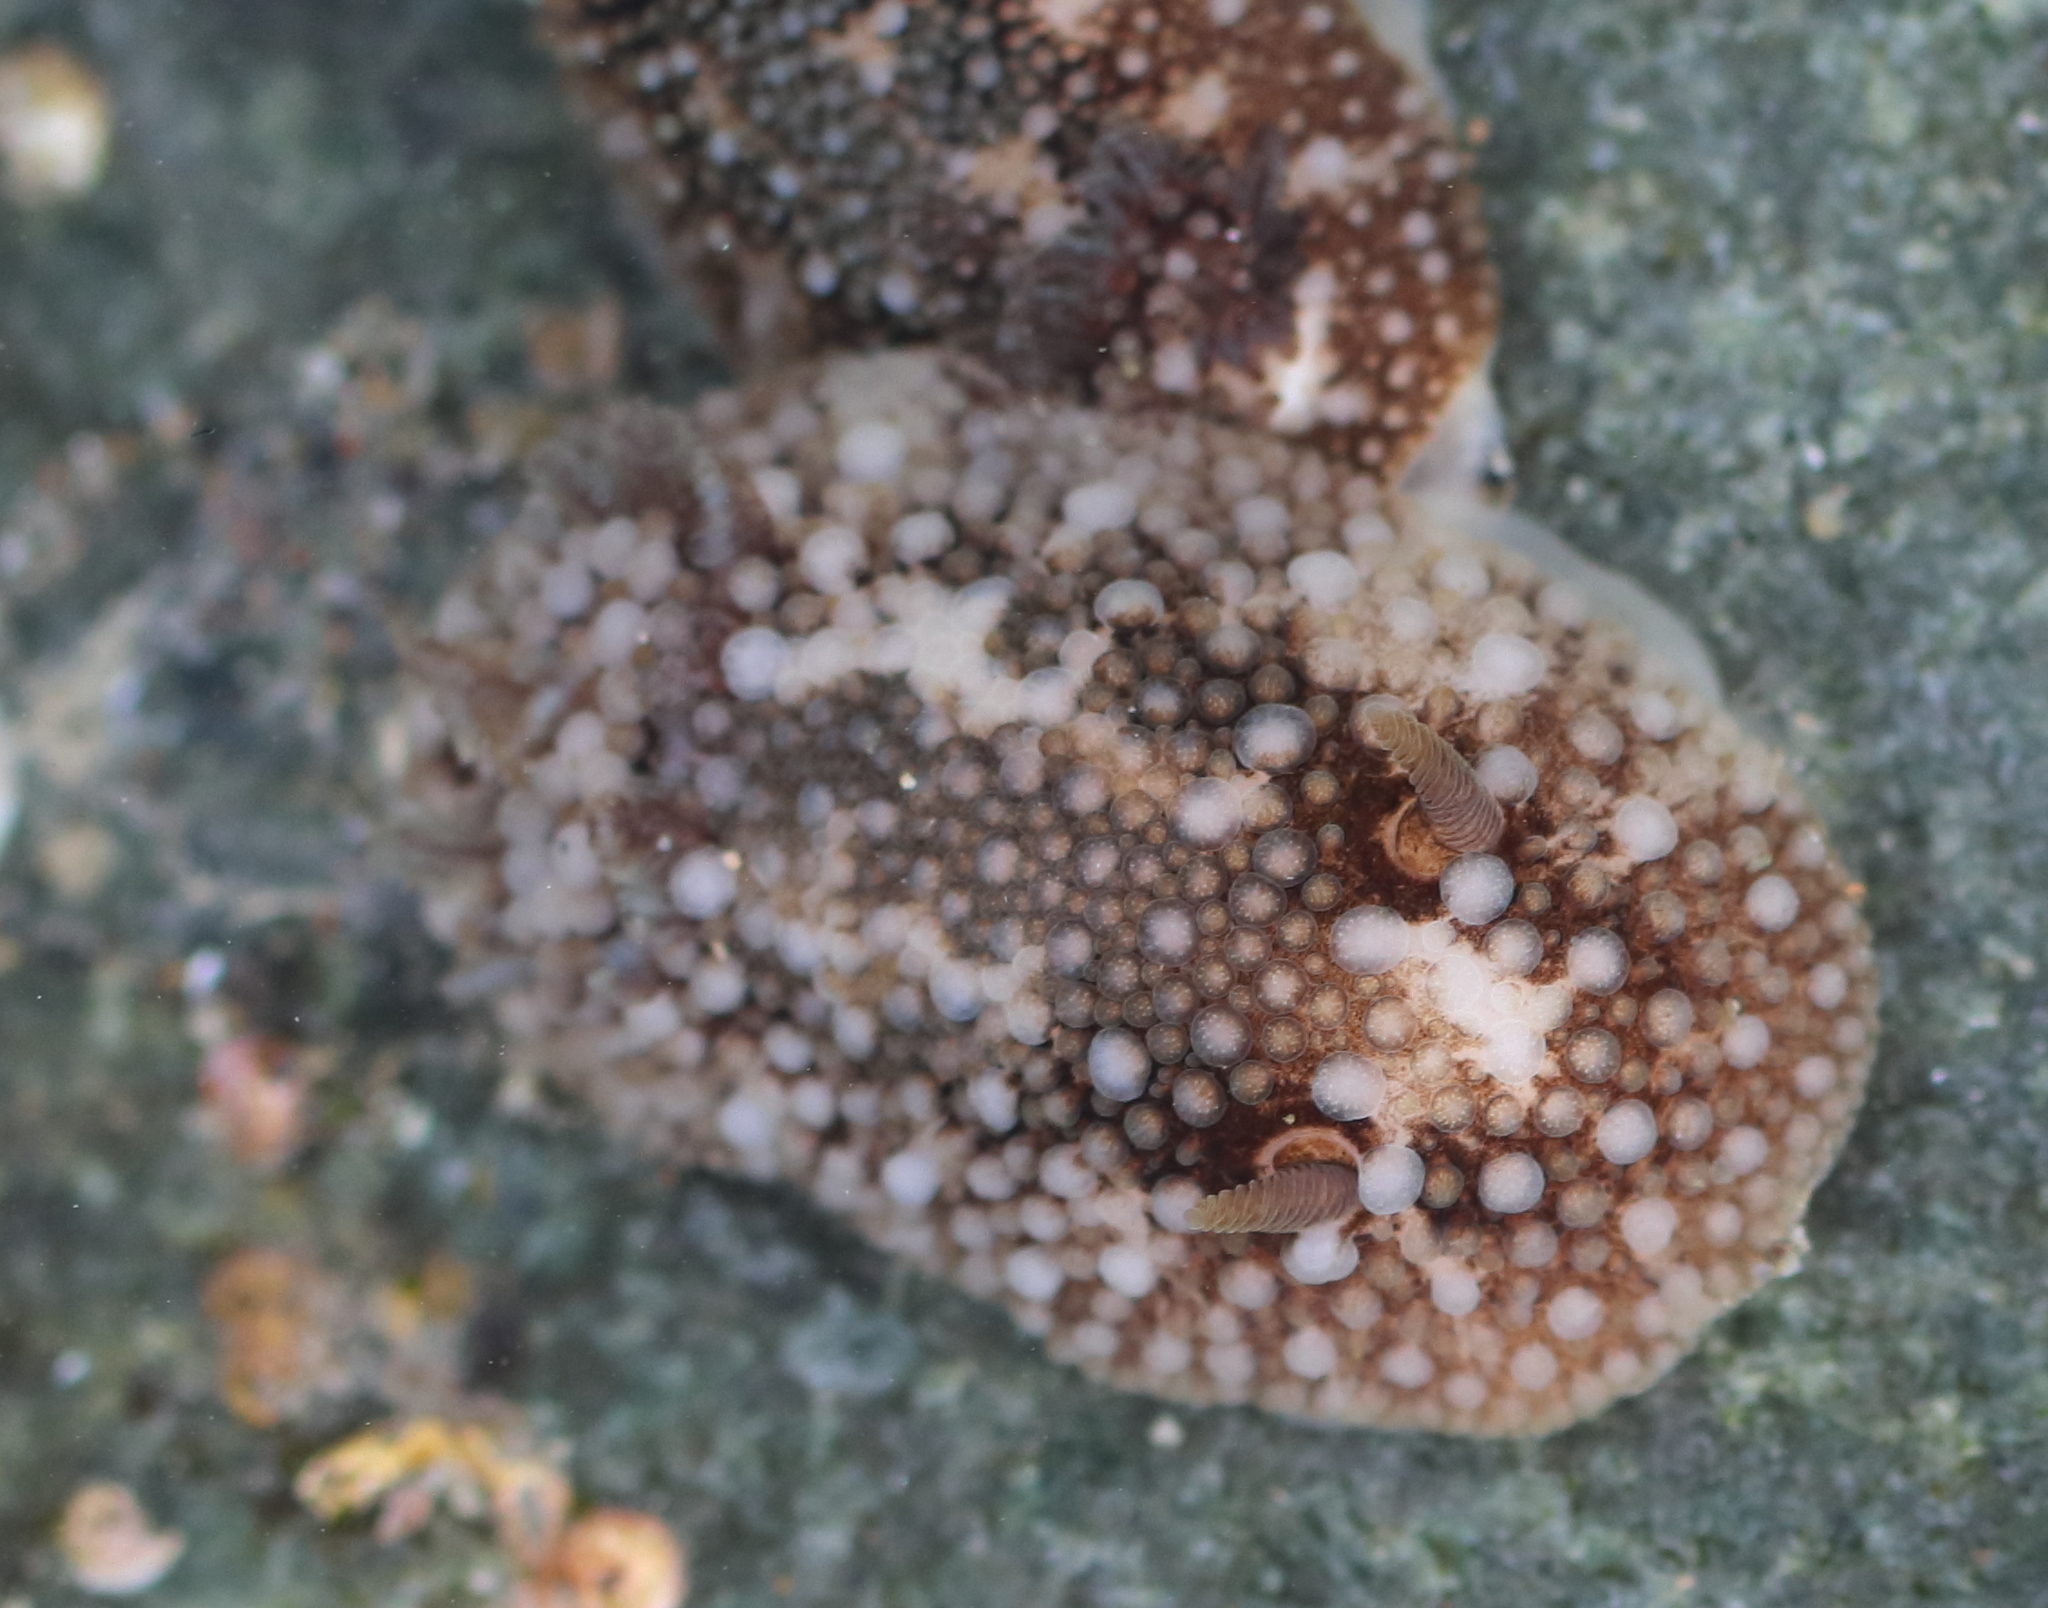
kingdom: Animalia
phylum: Mollusca
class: Gastropoda
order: Nudibranchia
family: Onchidorididae
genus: Onchidoris
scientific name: Onchidoris bilamellata
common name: Barnacle-eating onchidoris
